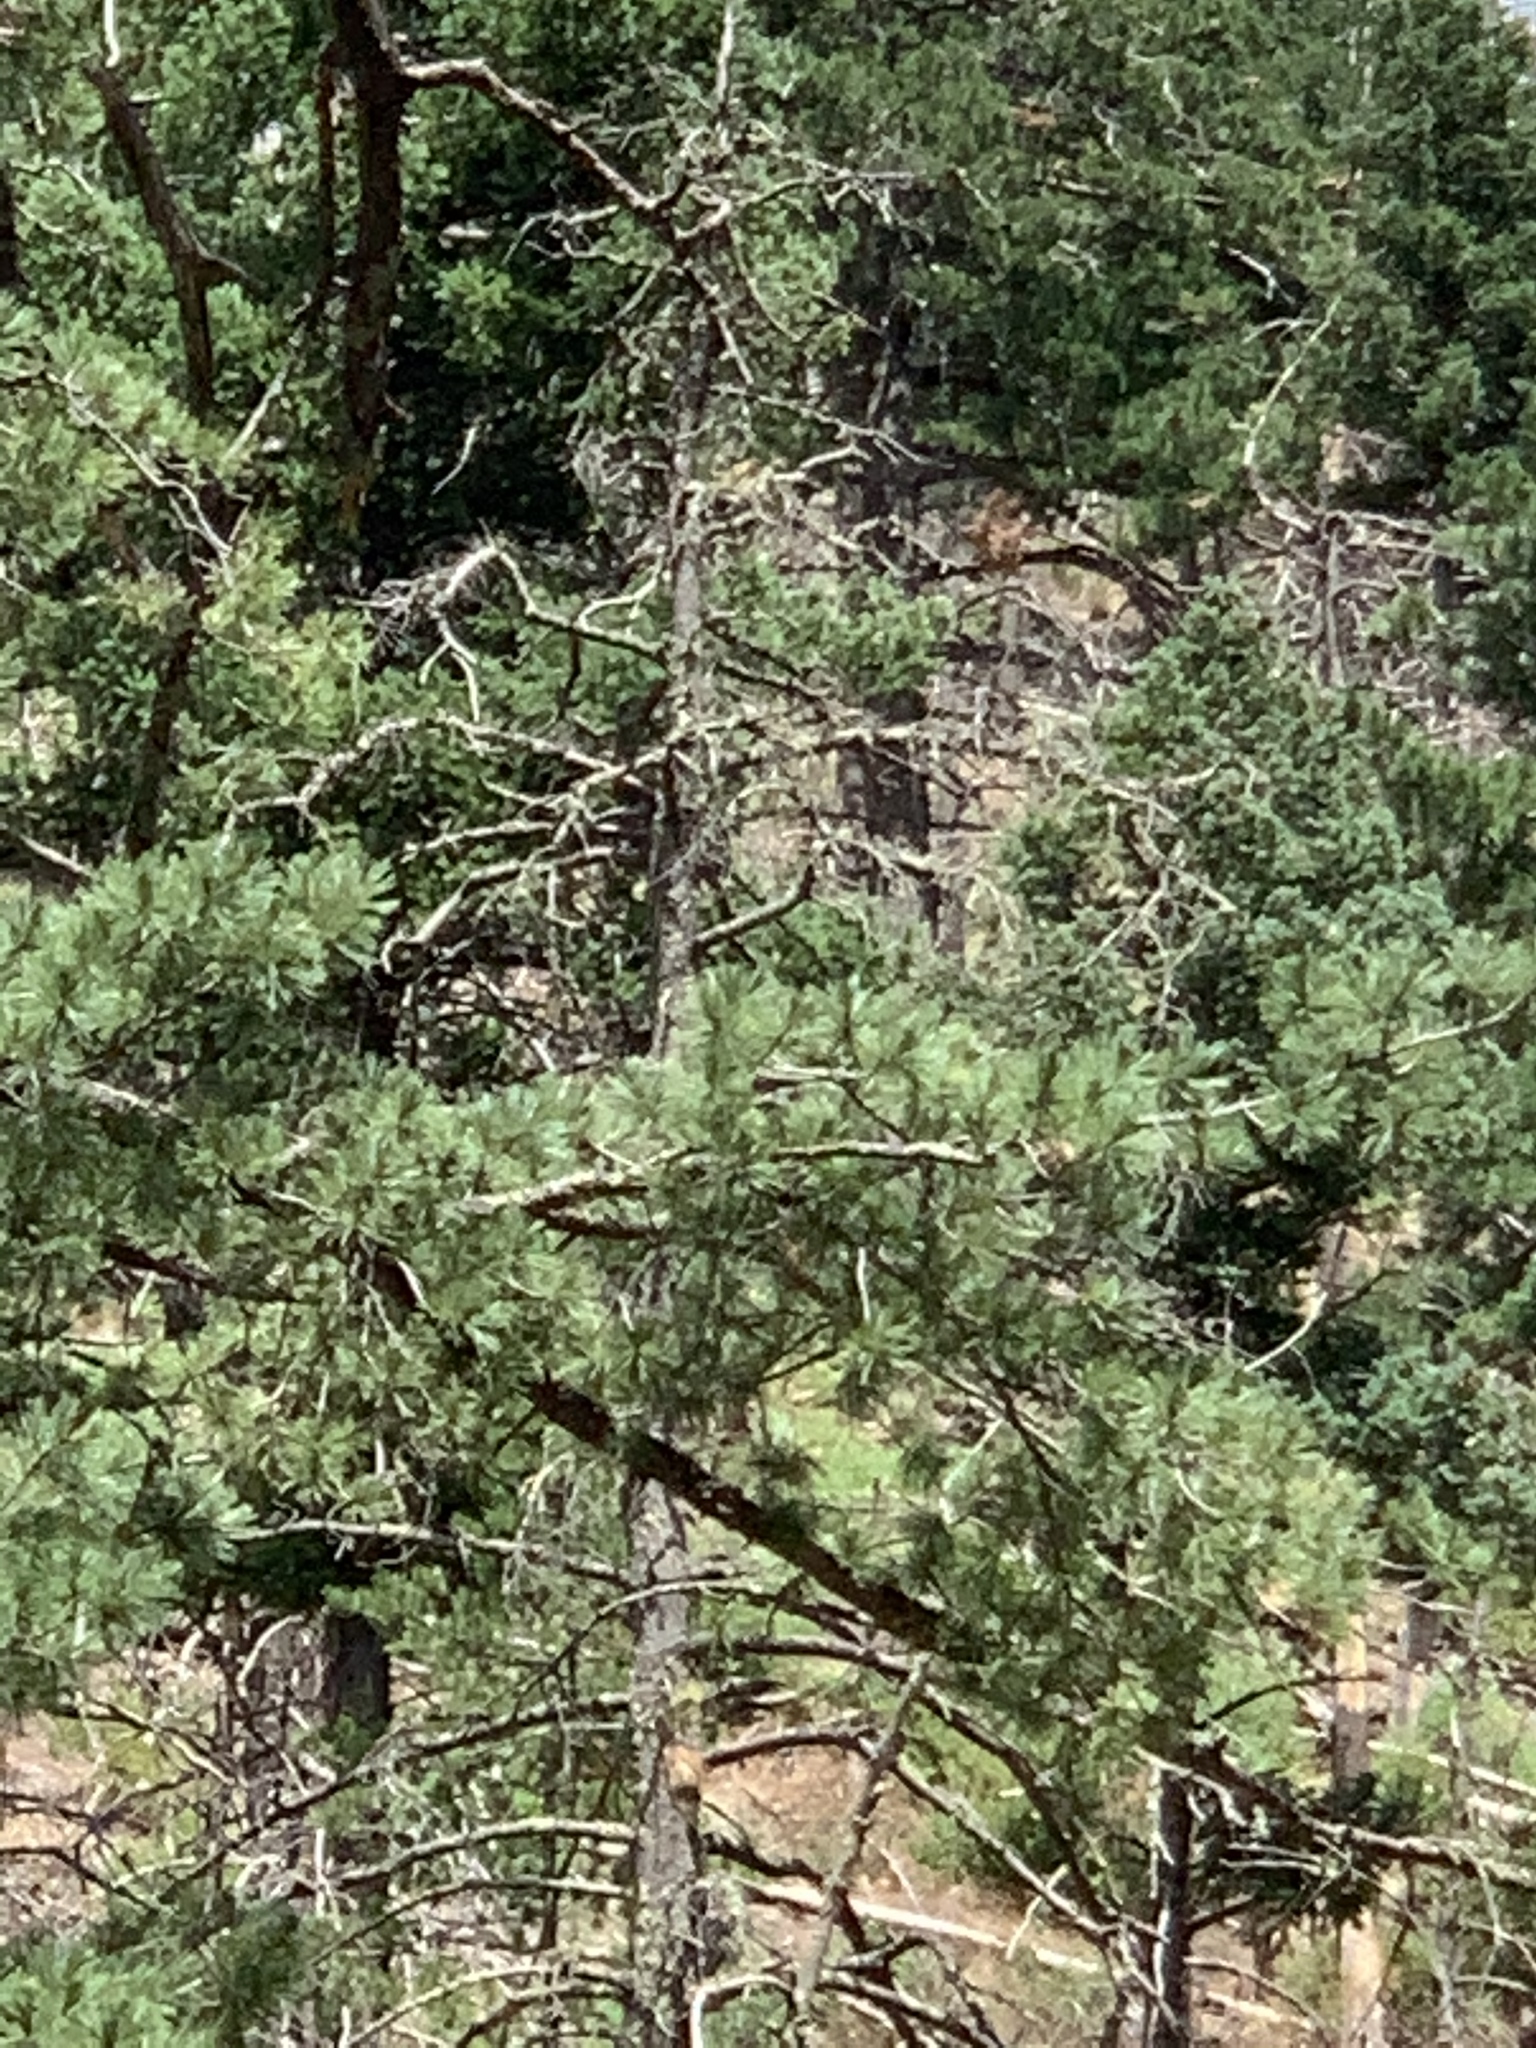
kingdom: Plantae
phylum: Tracheophyta
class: Pinopsida
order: Pinales
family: Pinaceae
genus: Pinus
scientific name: Pinus strobiformis
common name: Southwestern white pine
